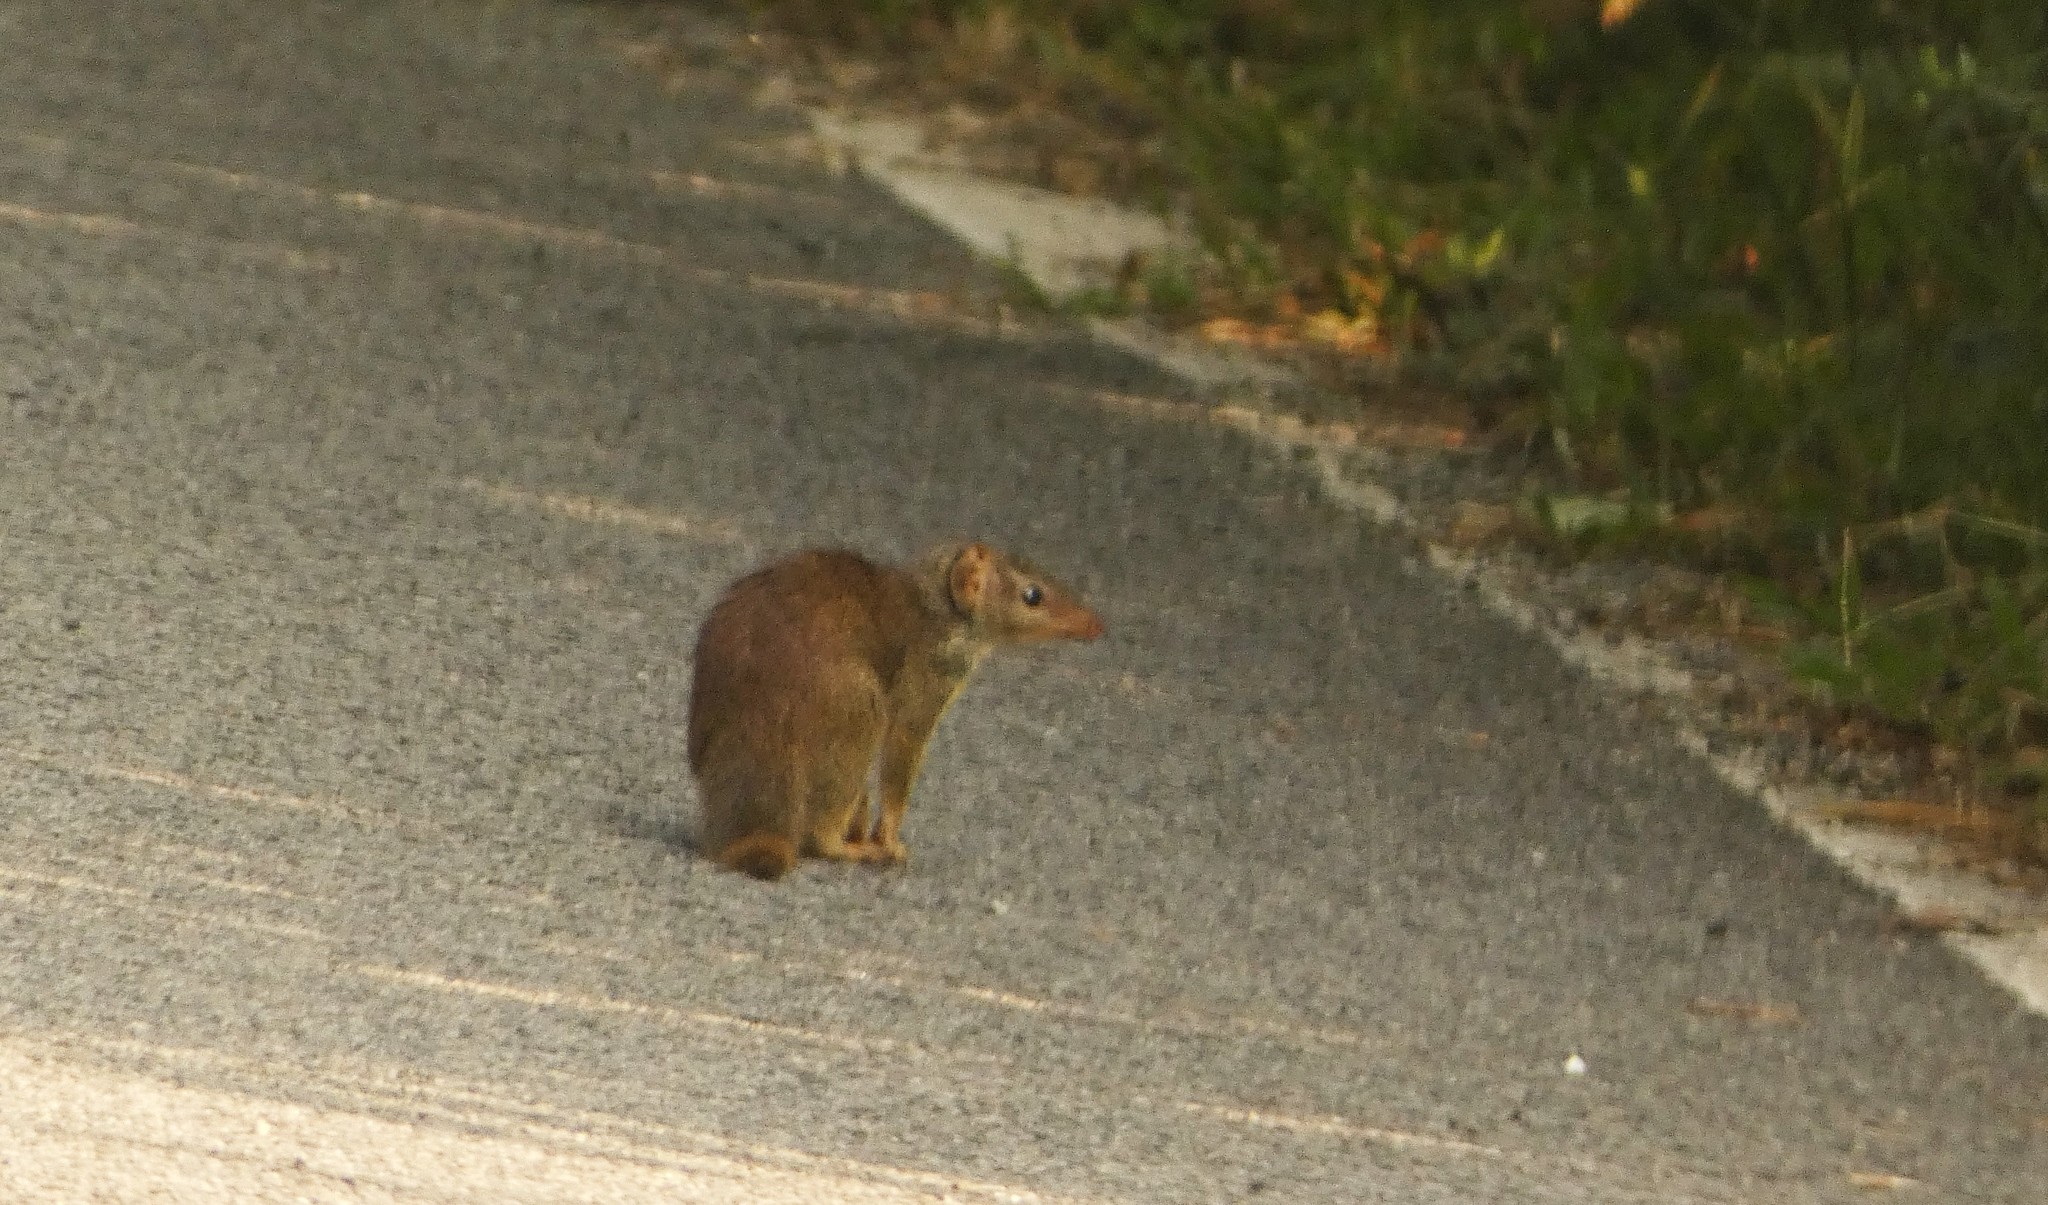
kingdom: Animalia
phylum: Chordata
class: Mammalia
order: Scandentia
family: Tupaiidae
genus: Anathana
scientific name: Anathana ellioti
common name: Madras treeshrew
